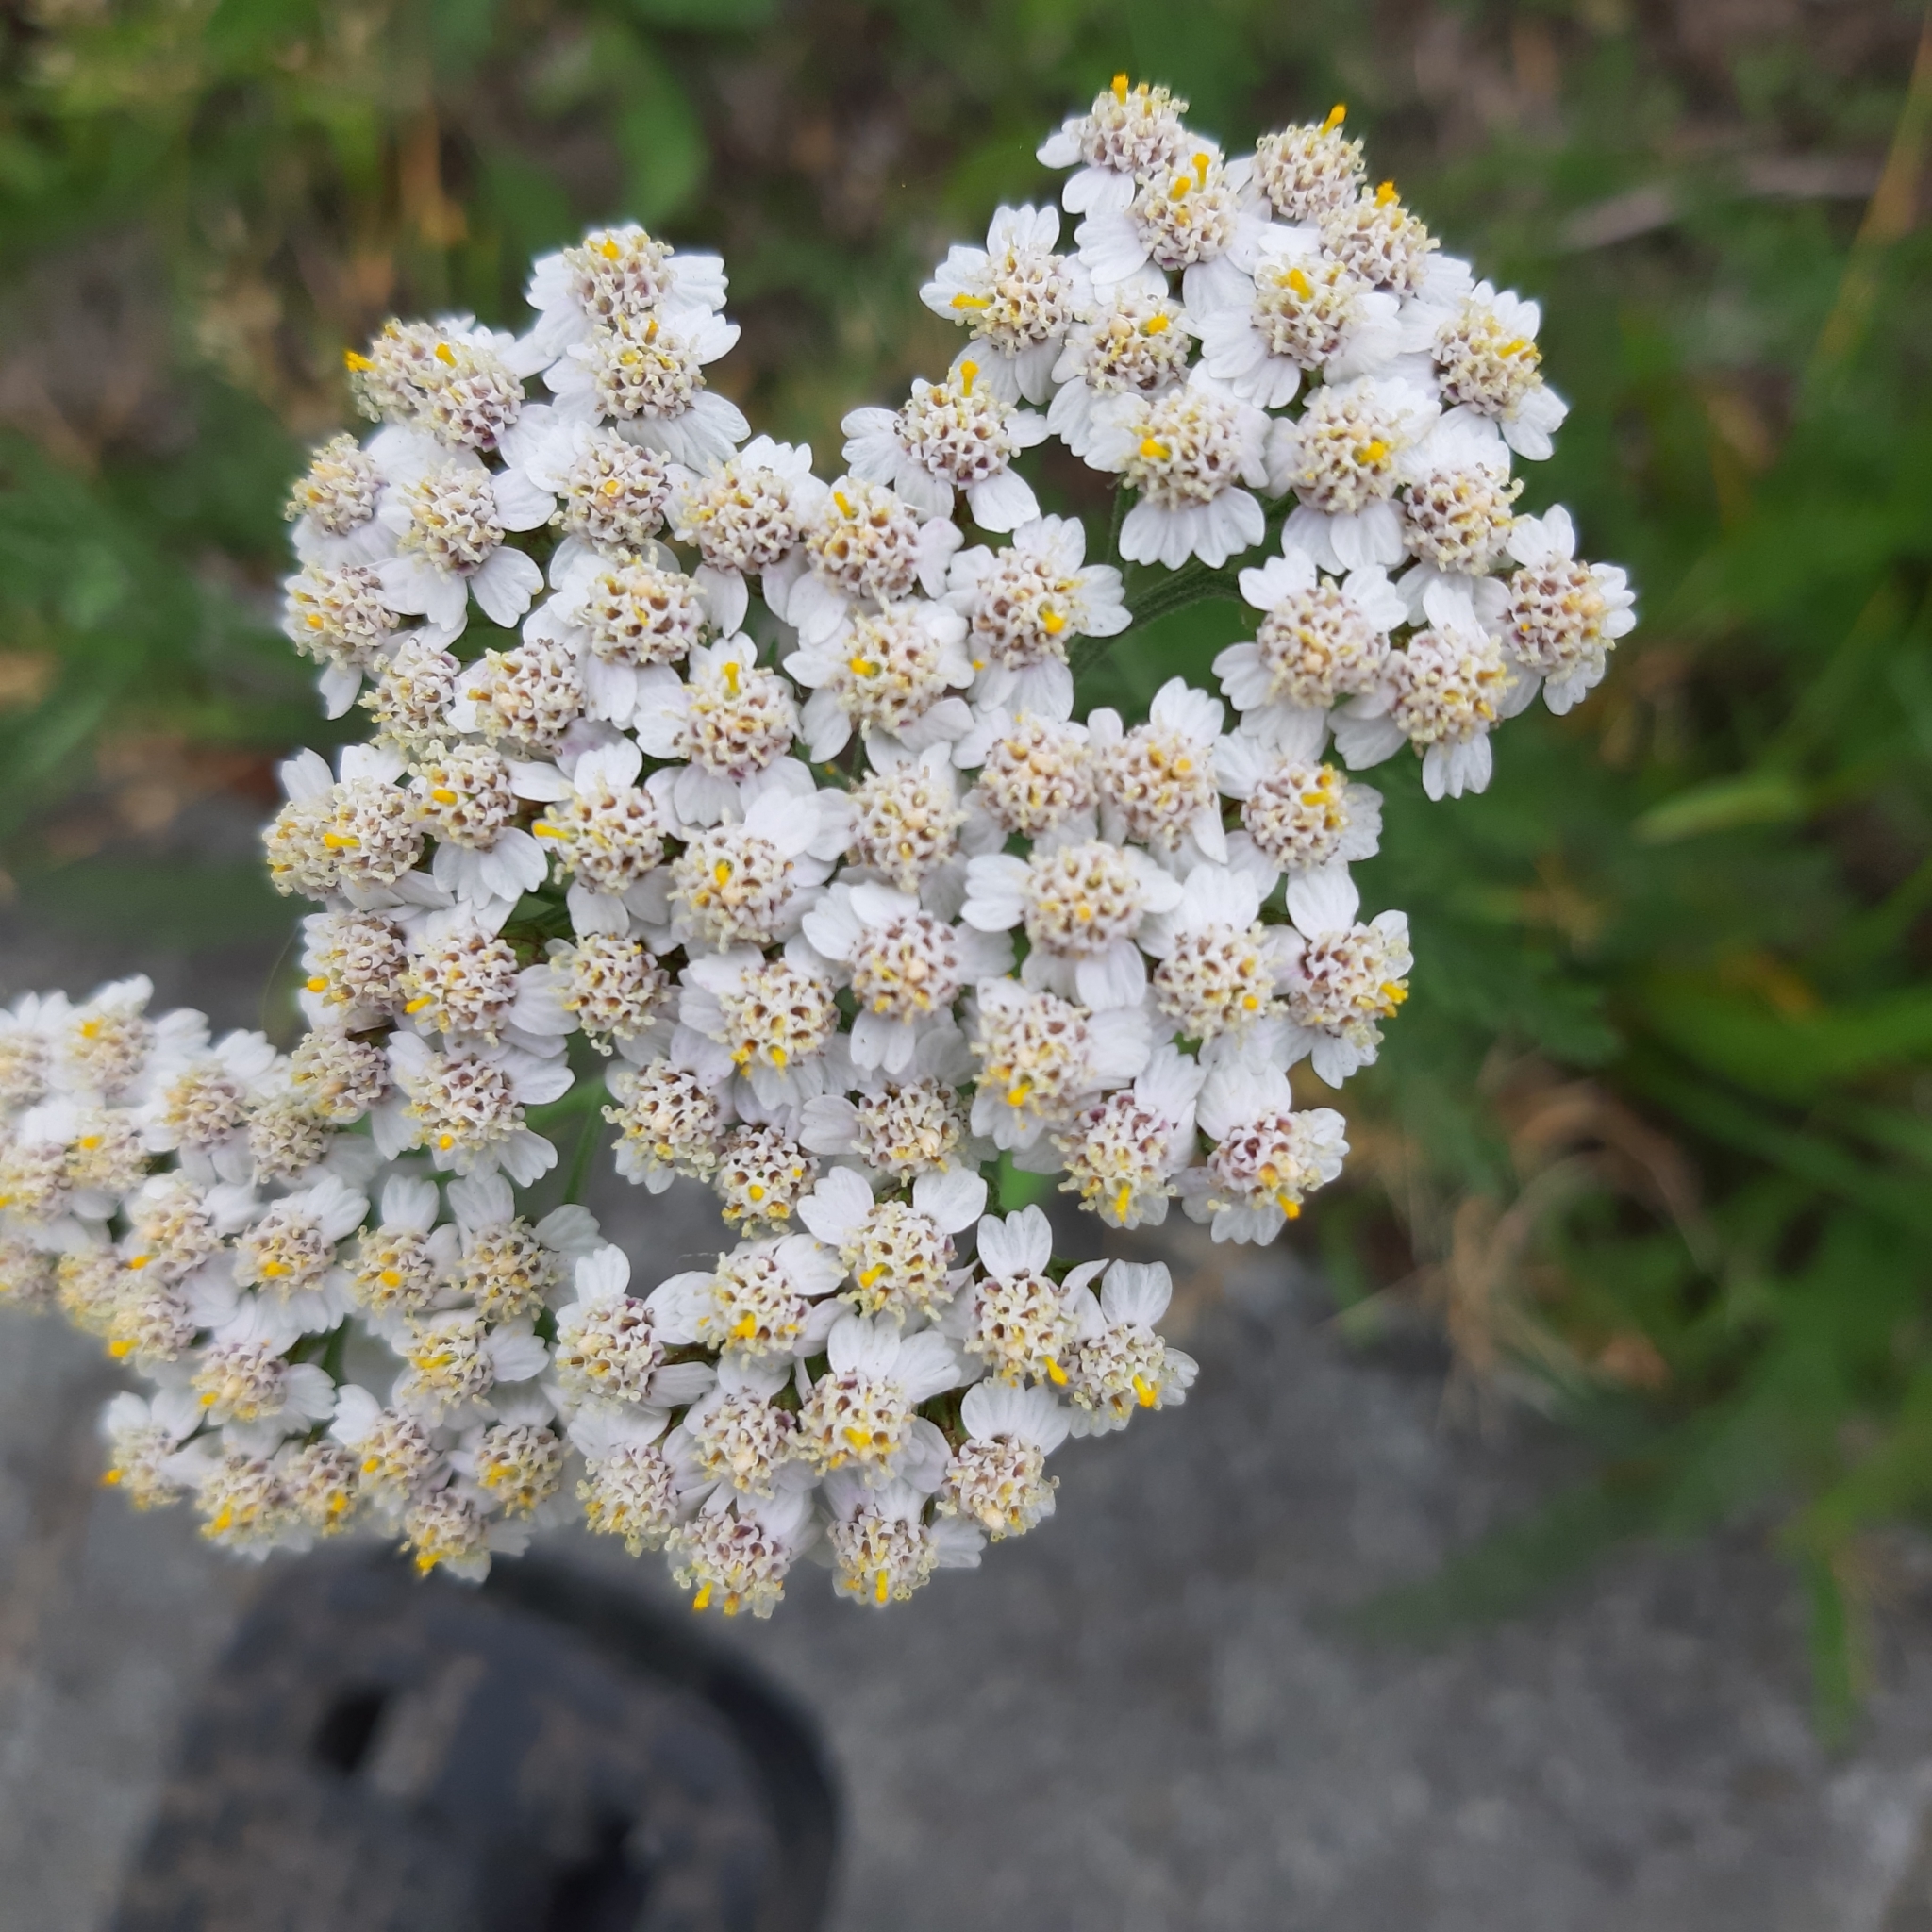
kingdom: Plantae
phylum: Tracheophyta
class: Magnoliopsida
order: Asterales
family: Asteraceae
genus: Achillea
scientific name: Achillea millefolium
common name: Yarrow
